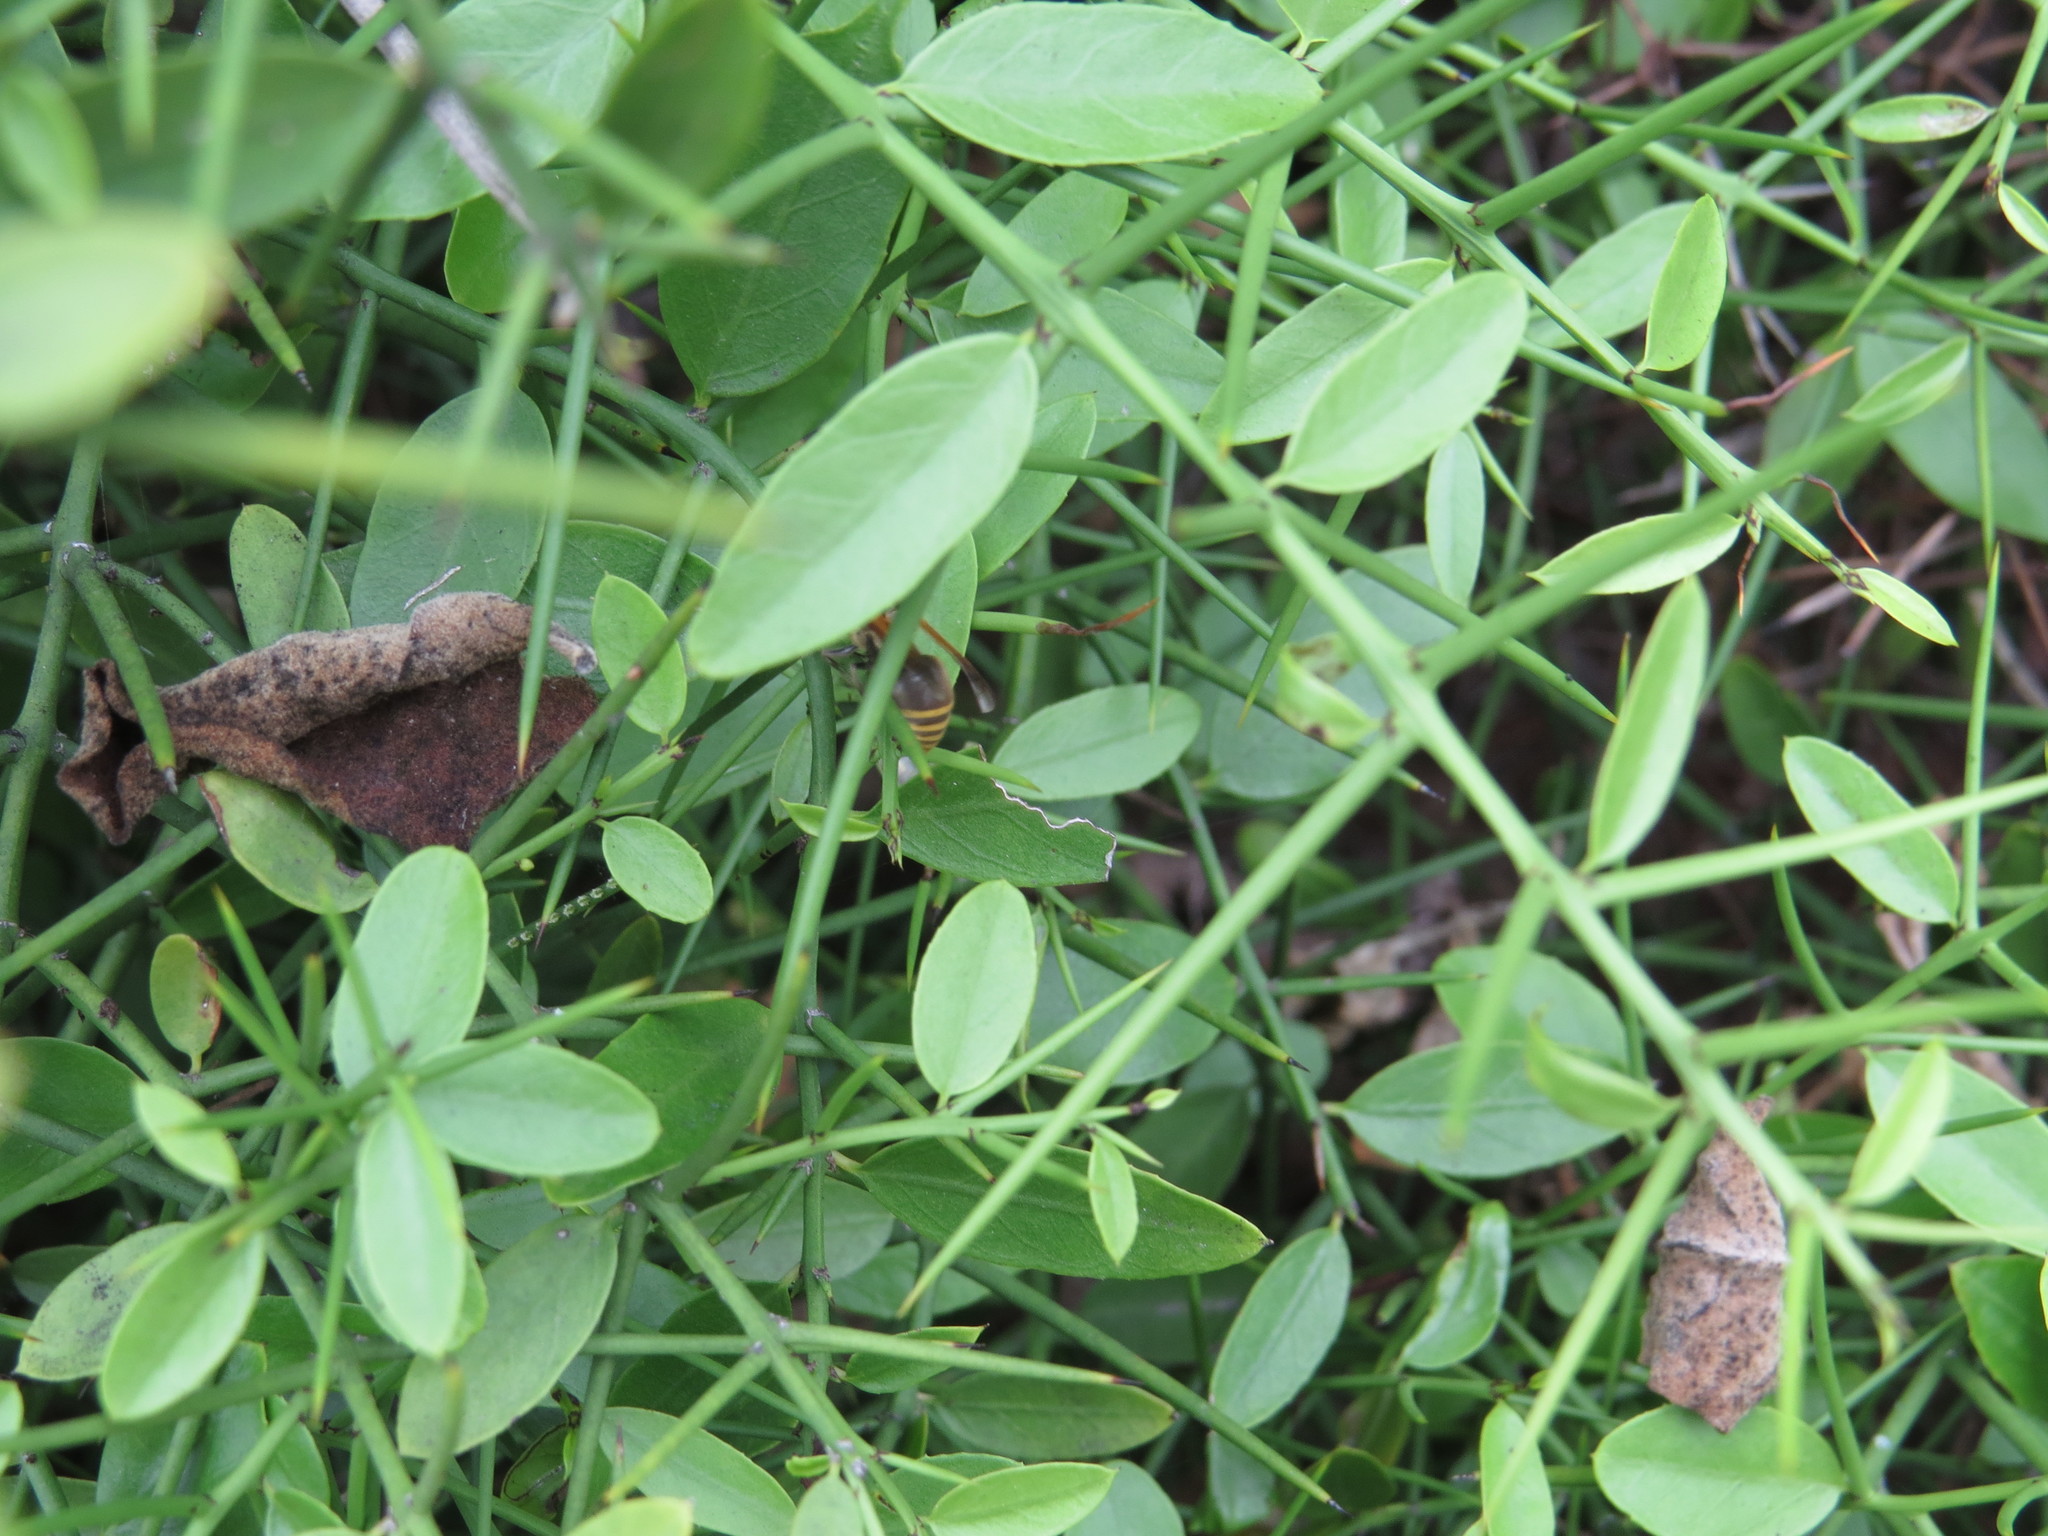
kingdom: Plantae
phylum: Tracheophyta
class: Magnoliopsida
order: Rosales
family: Rhamnaceae
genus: Scutia
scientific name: Scutia spicata
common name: Spiny bush
